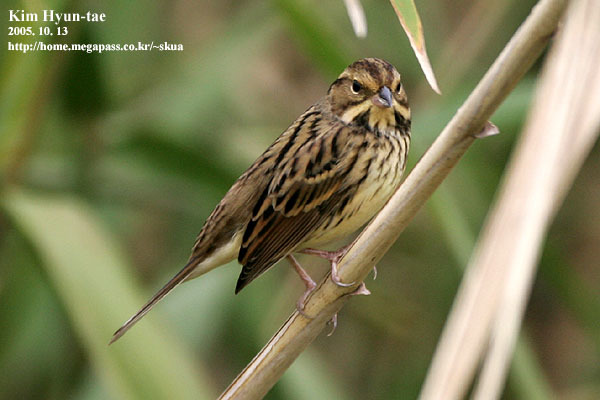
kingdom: Animalia
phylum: Chordata
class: Aves
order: Passeriformes
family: Emberizidae
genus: Emberiza
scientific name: Emberiza spodocephala
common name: Black-faced bunting
